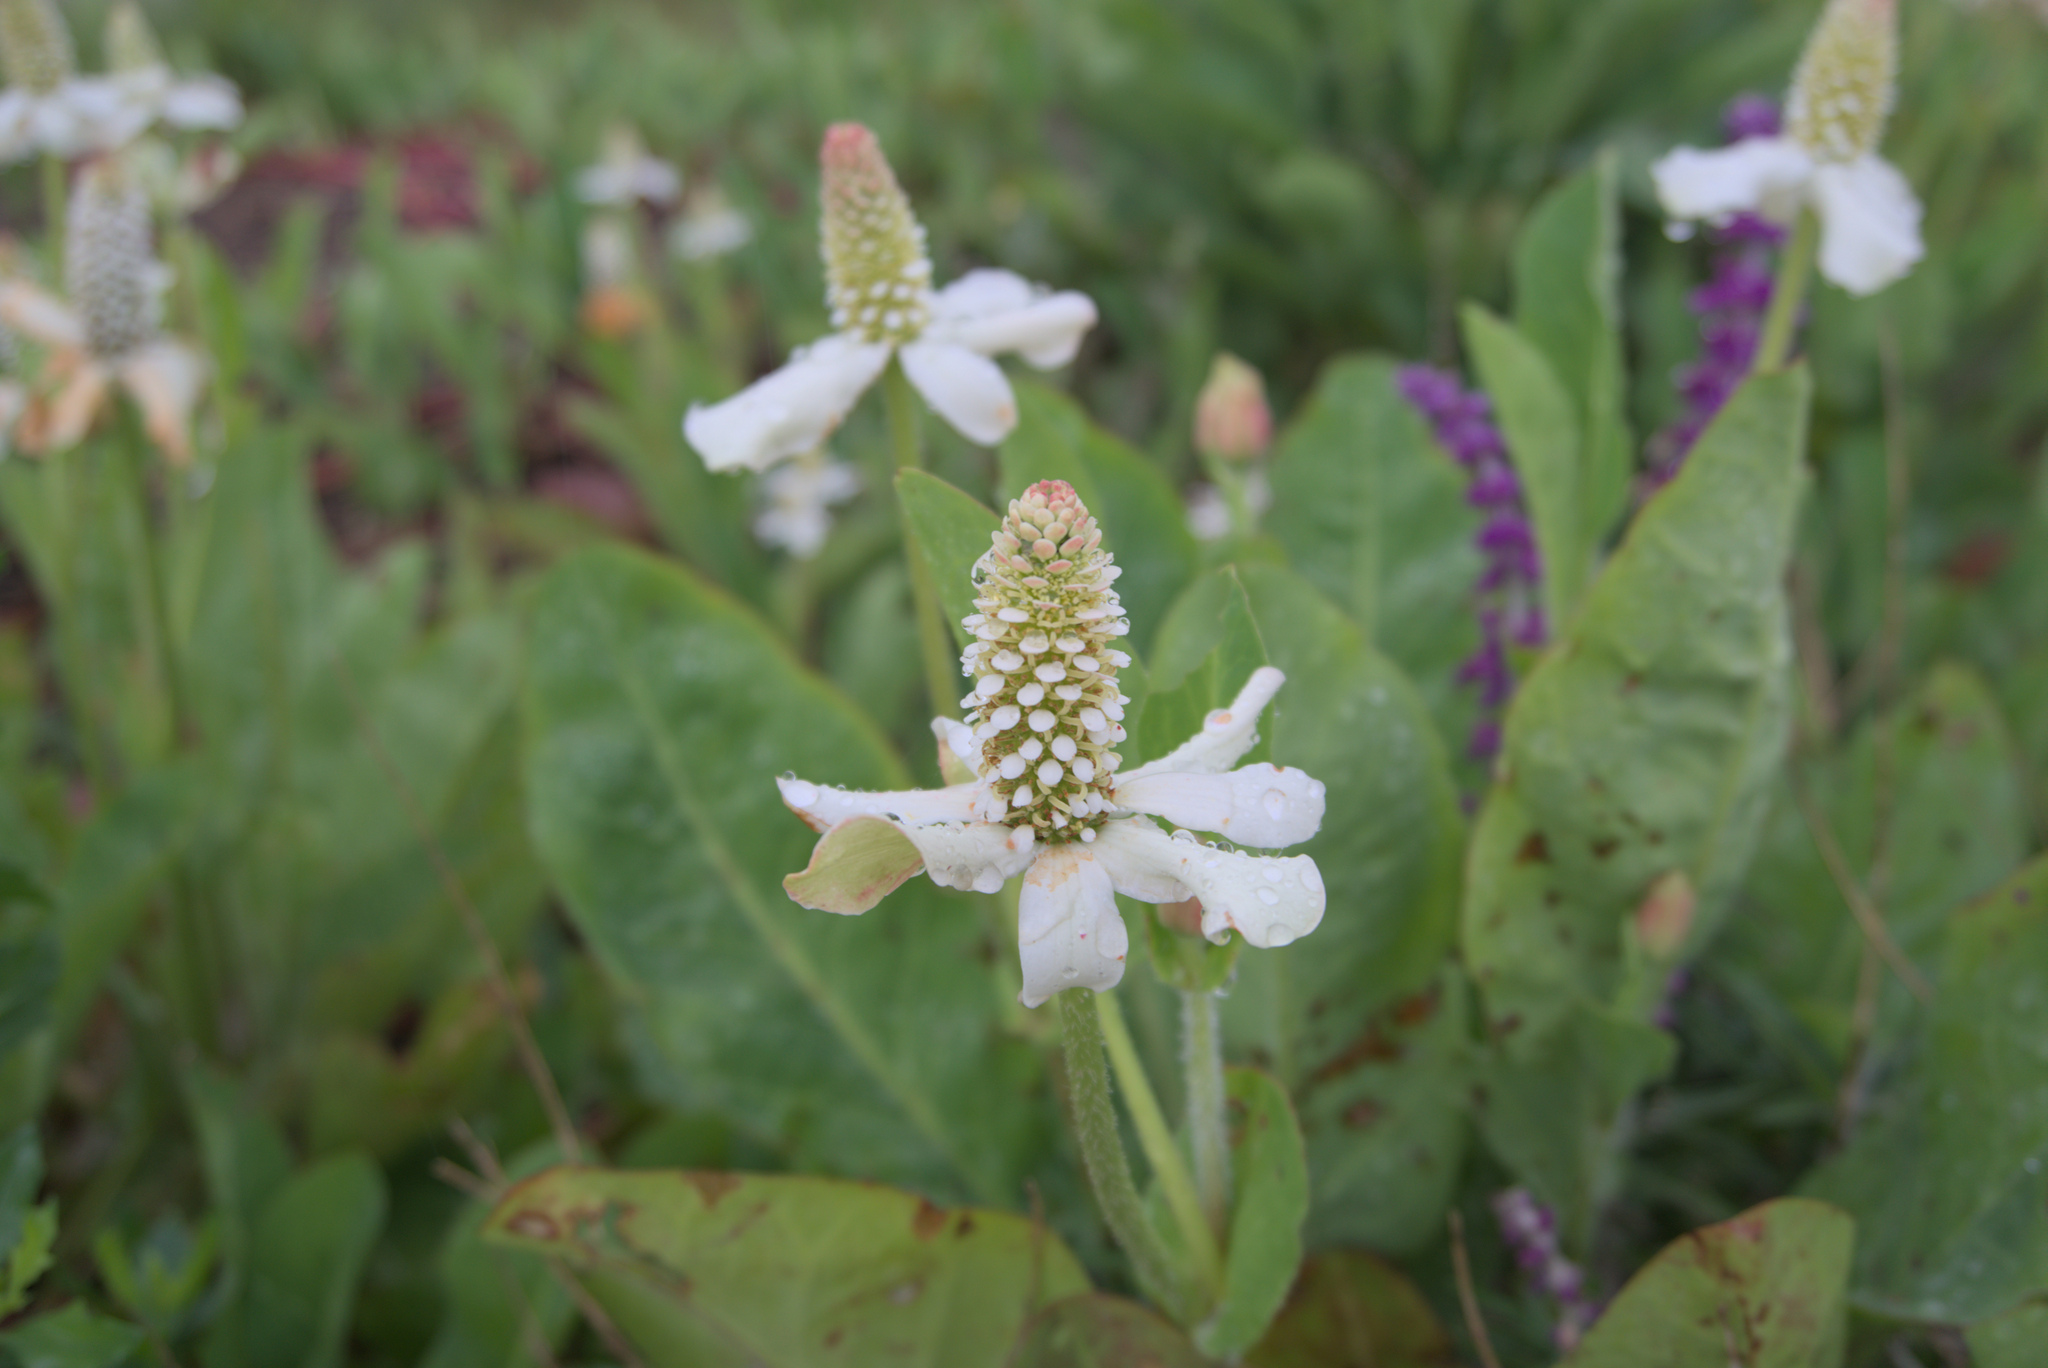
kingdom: Plantae
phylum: Tracheophyta
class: Magnoliopsida
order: Piperales
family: Saururaceae
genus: Anemopsis
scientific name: Anemopsis californica
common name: Apache-beads
